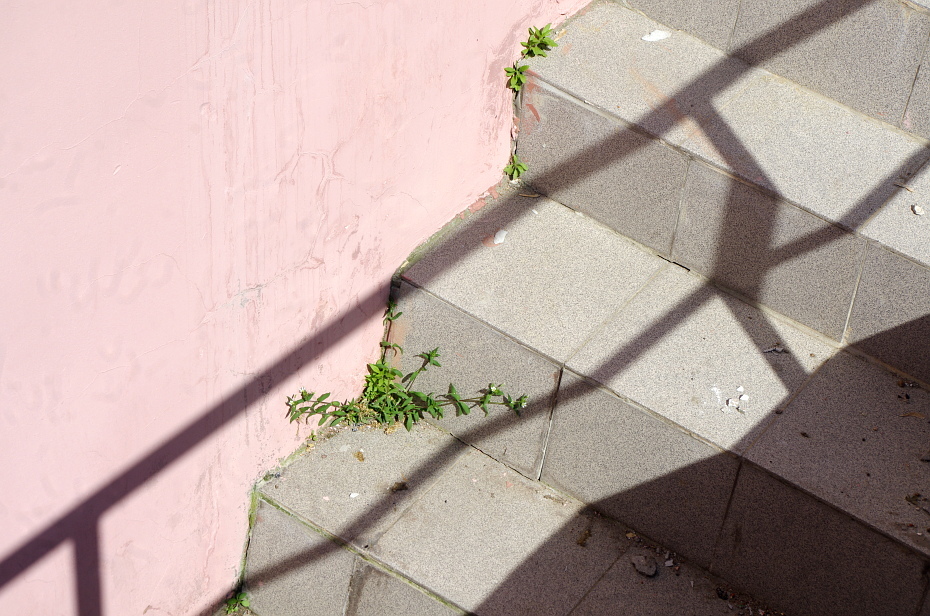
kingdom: Plantae
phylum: Tracheophyta
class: Magnoliopsida
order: Caryophyllales
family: Caryophyllaceae
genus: Cerastium
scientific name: Cerastium holosteoides
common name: Big chickweed
